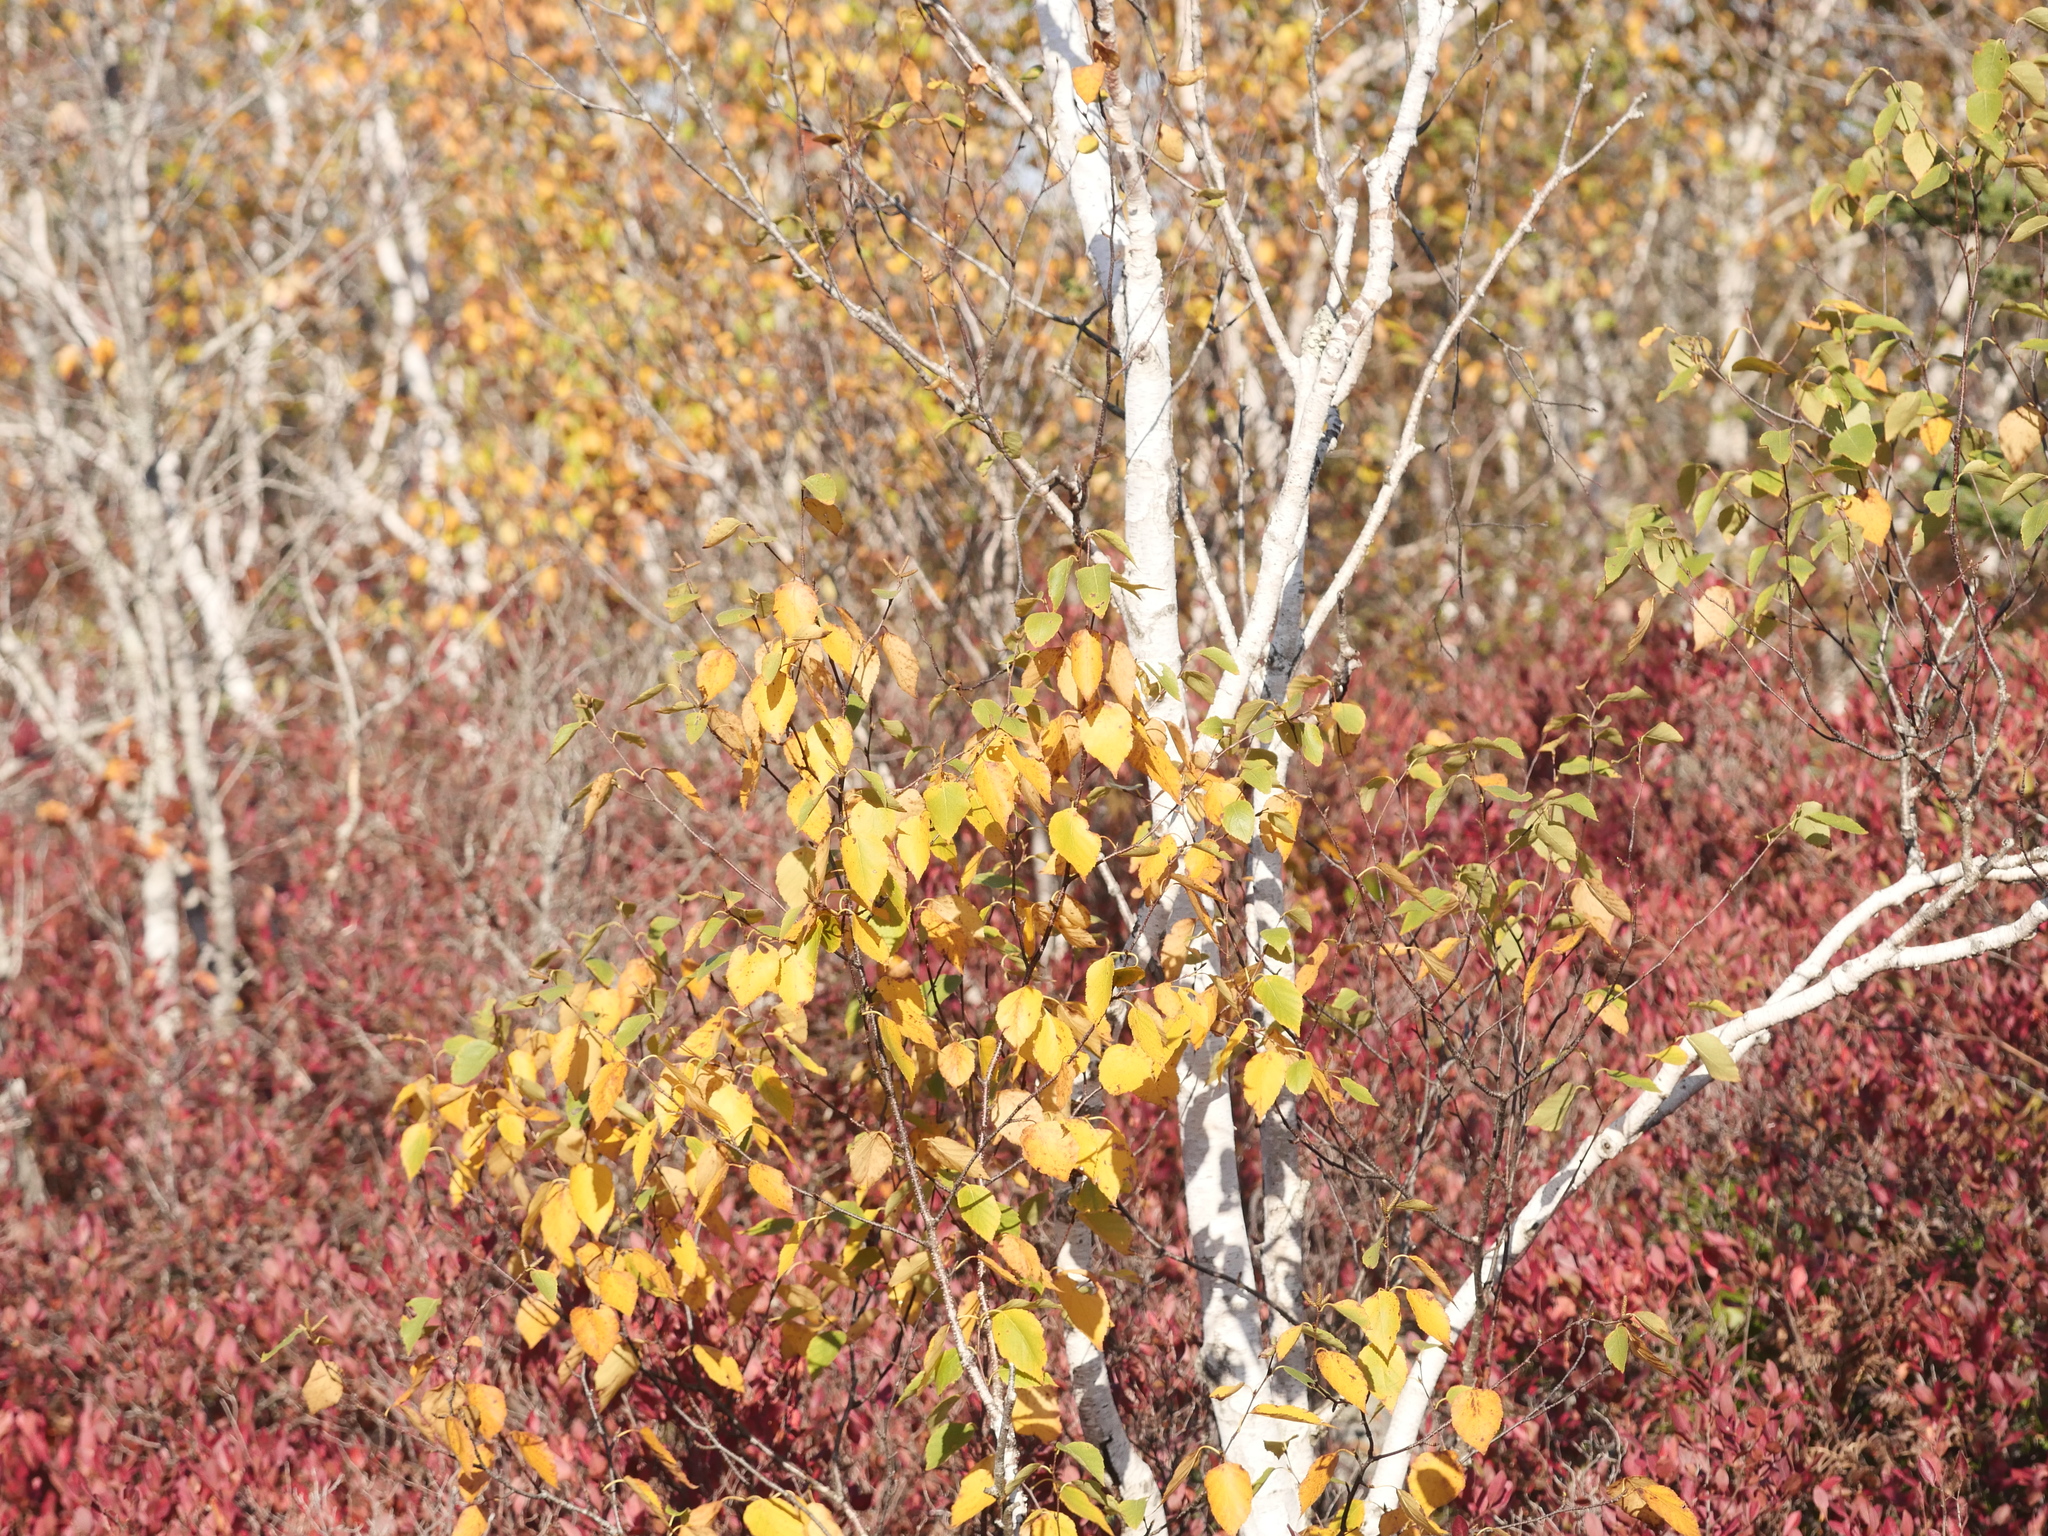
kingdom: Plantae
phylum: Tracheophyta
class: Magnoliopsida
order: Fagales
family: Betulaceae
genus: Betula
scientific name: Betula papyrifera
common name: Paper birch
